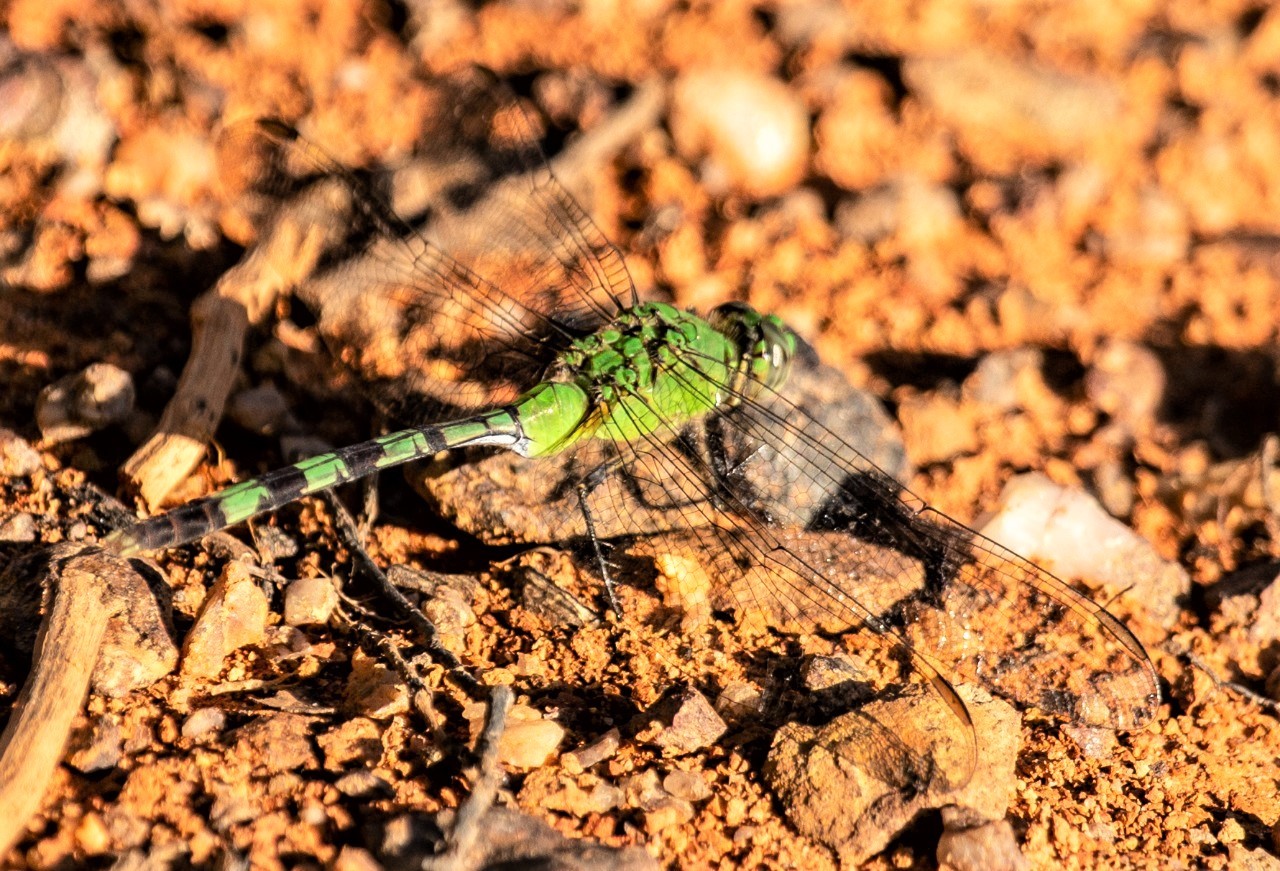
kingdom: Animalia
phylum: Arthropoda
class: Insecta
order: Odonata
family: Libellulidae
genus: Erythemis
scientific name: Erythemis vesiculosa
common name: Great pondhawk
